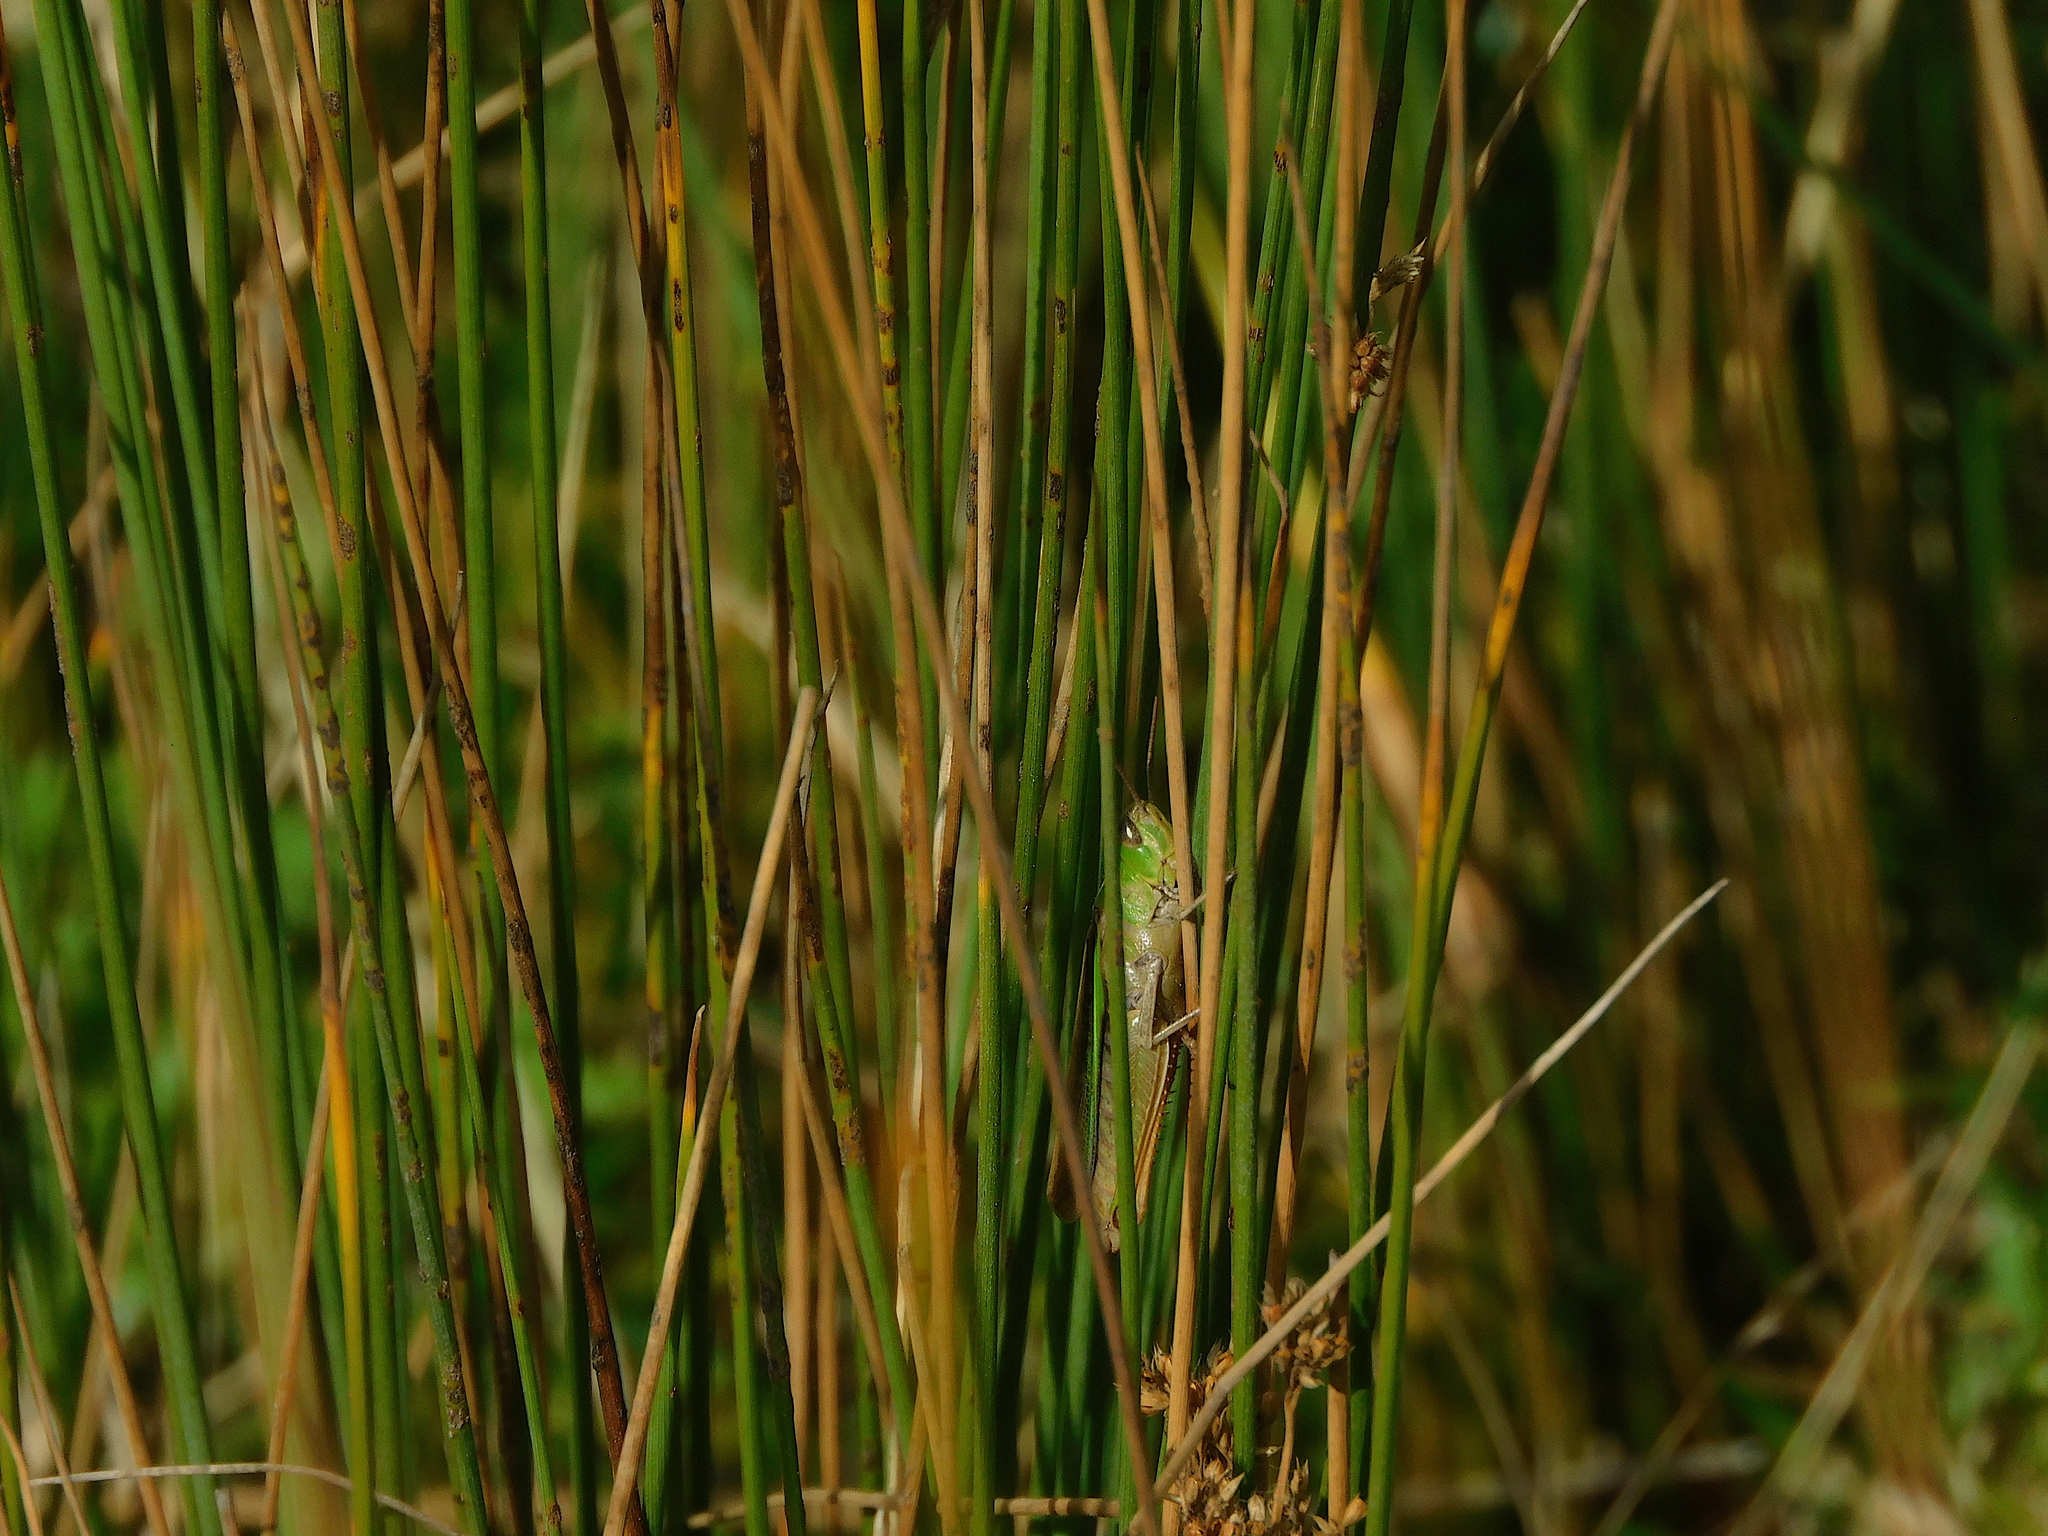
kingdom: Animalia
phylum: Arthropoda
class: Insecta
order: Orthoptera
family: Acrididae
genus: Schizobothrus
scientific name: Schizobothrus flavovittatus
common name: Disappearing grasshopper
